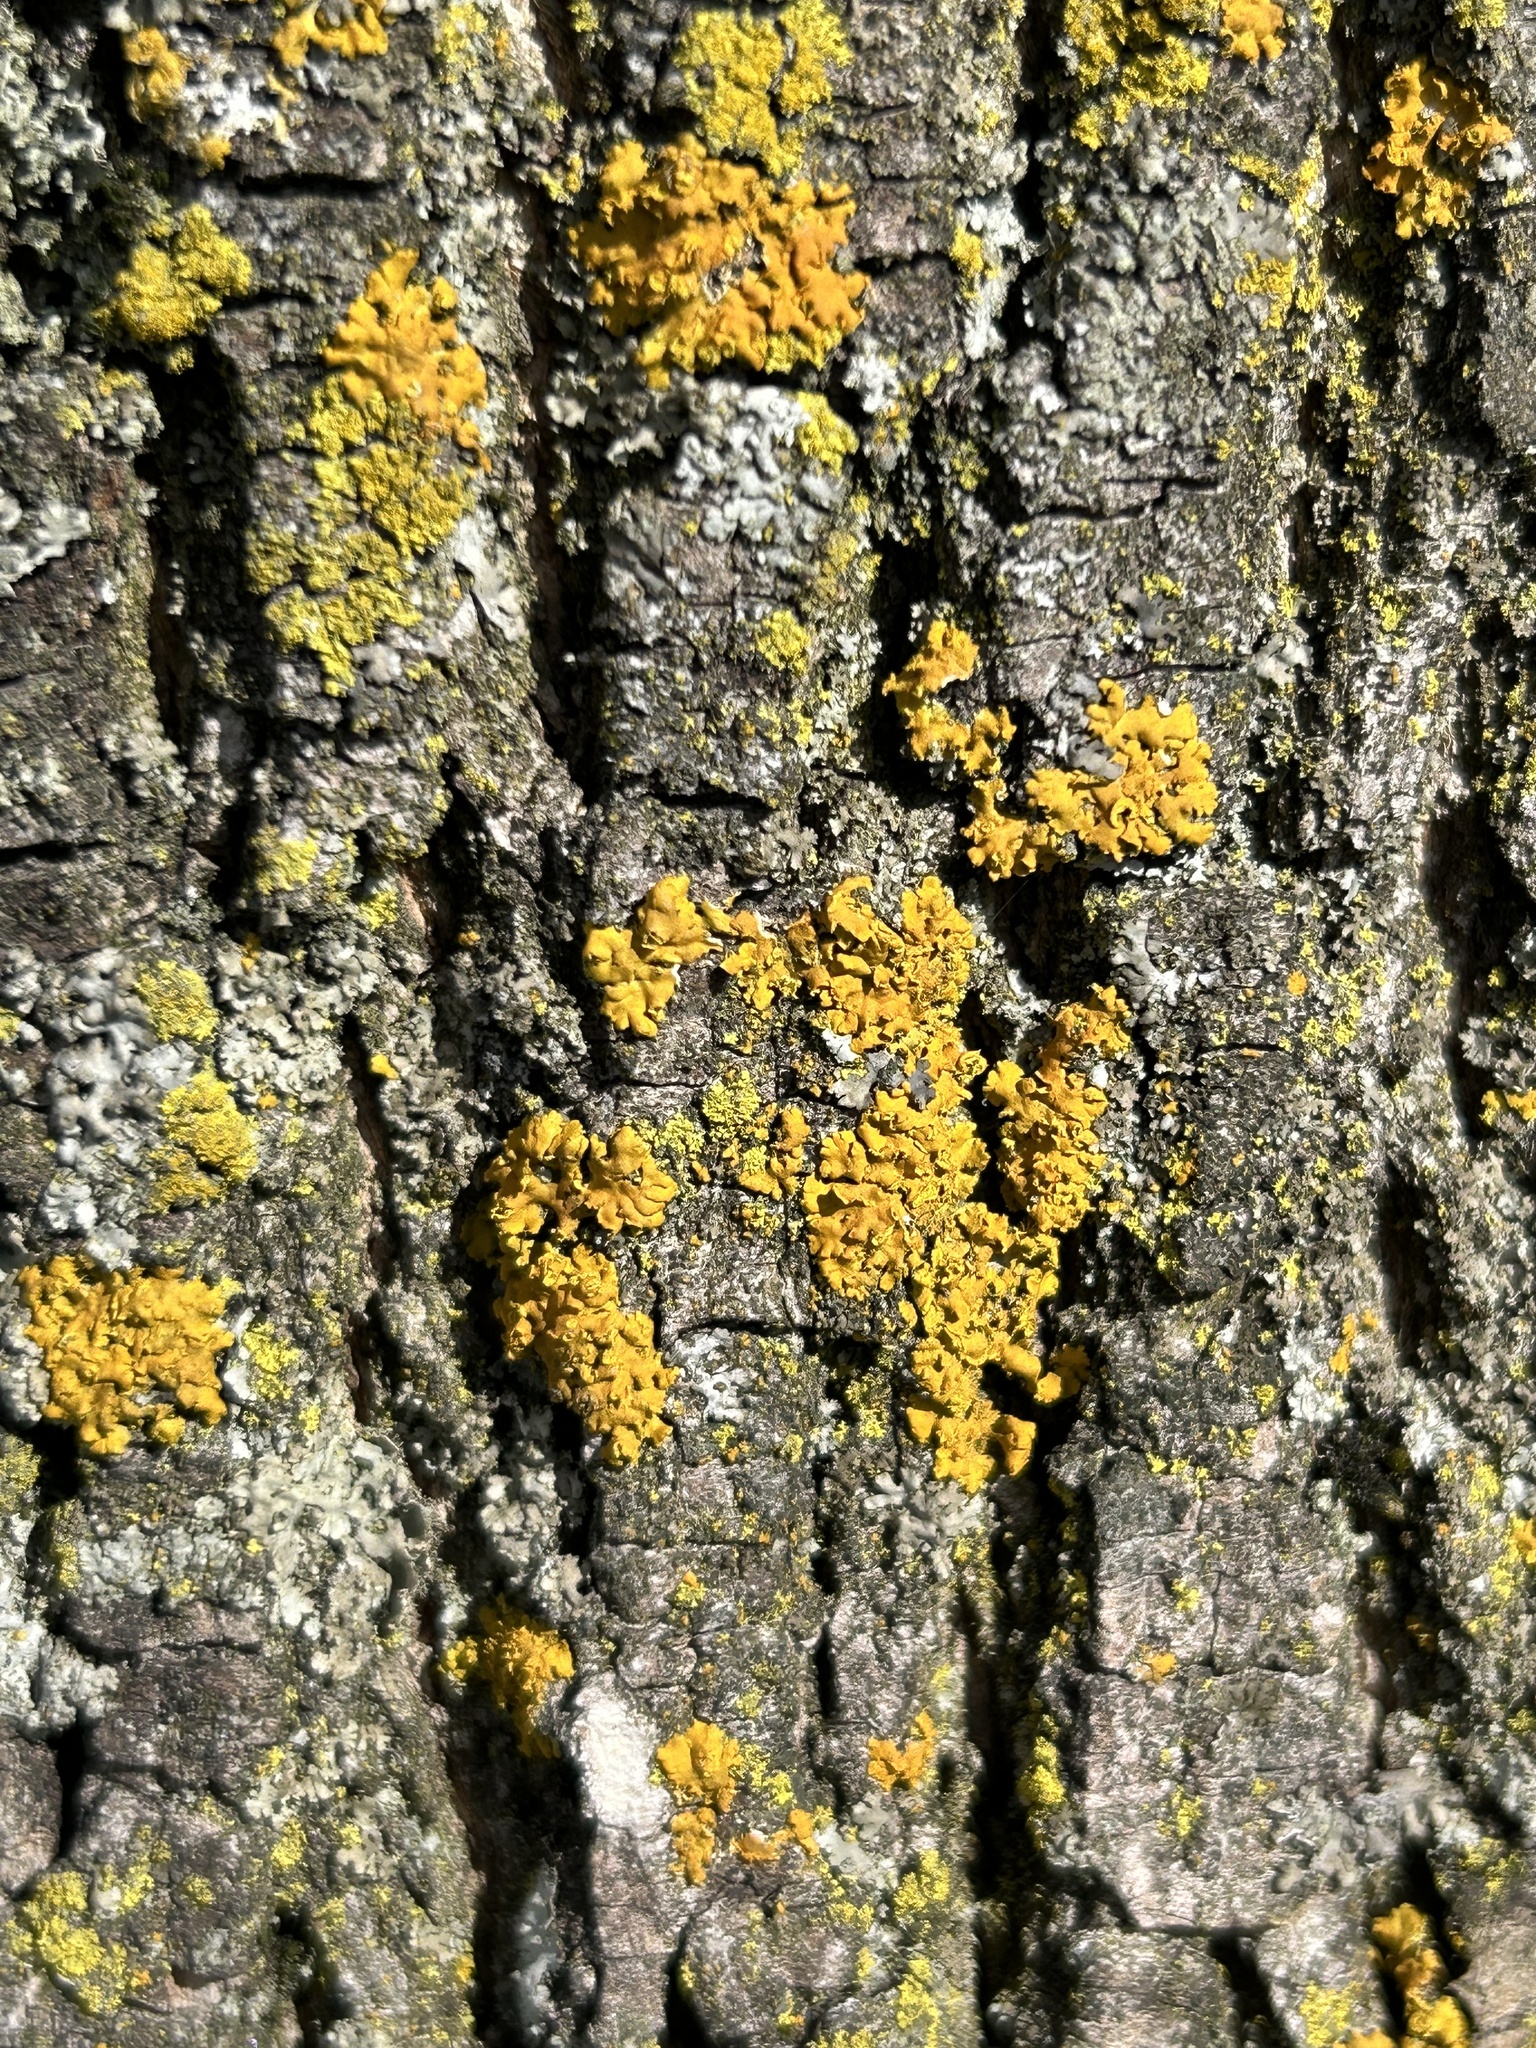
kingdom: Fungi
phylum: Ascomycota
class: Lecanoromycetes
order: Teloschistales
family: Teloschistaceae
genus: Oxneria
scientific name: Oxneria fallax
